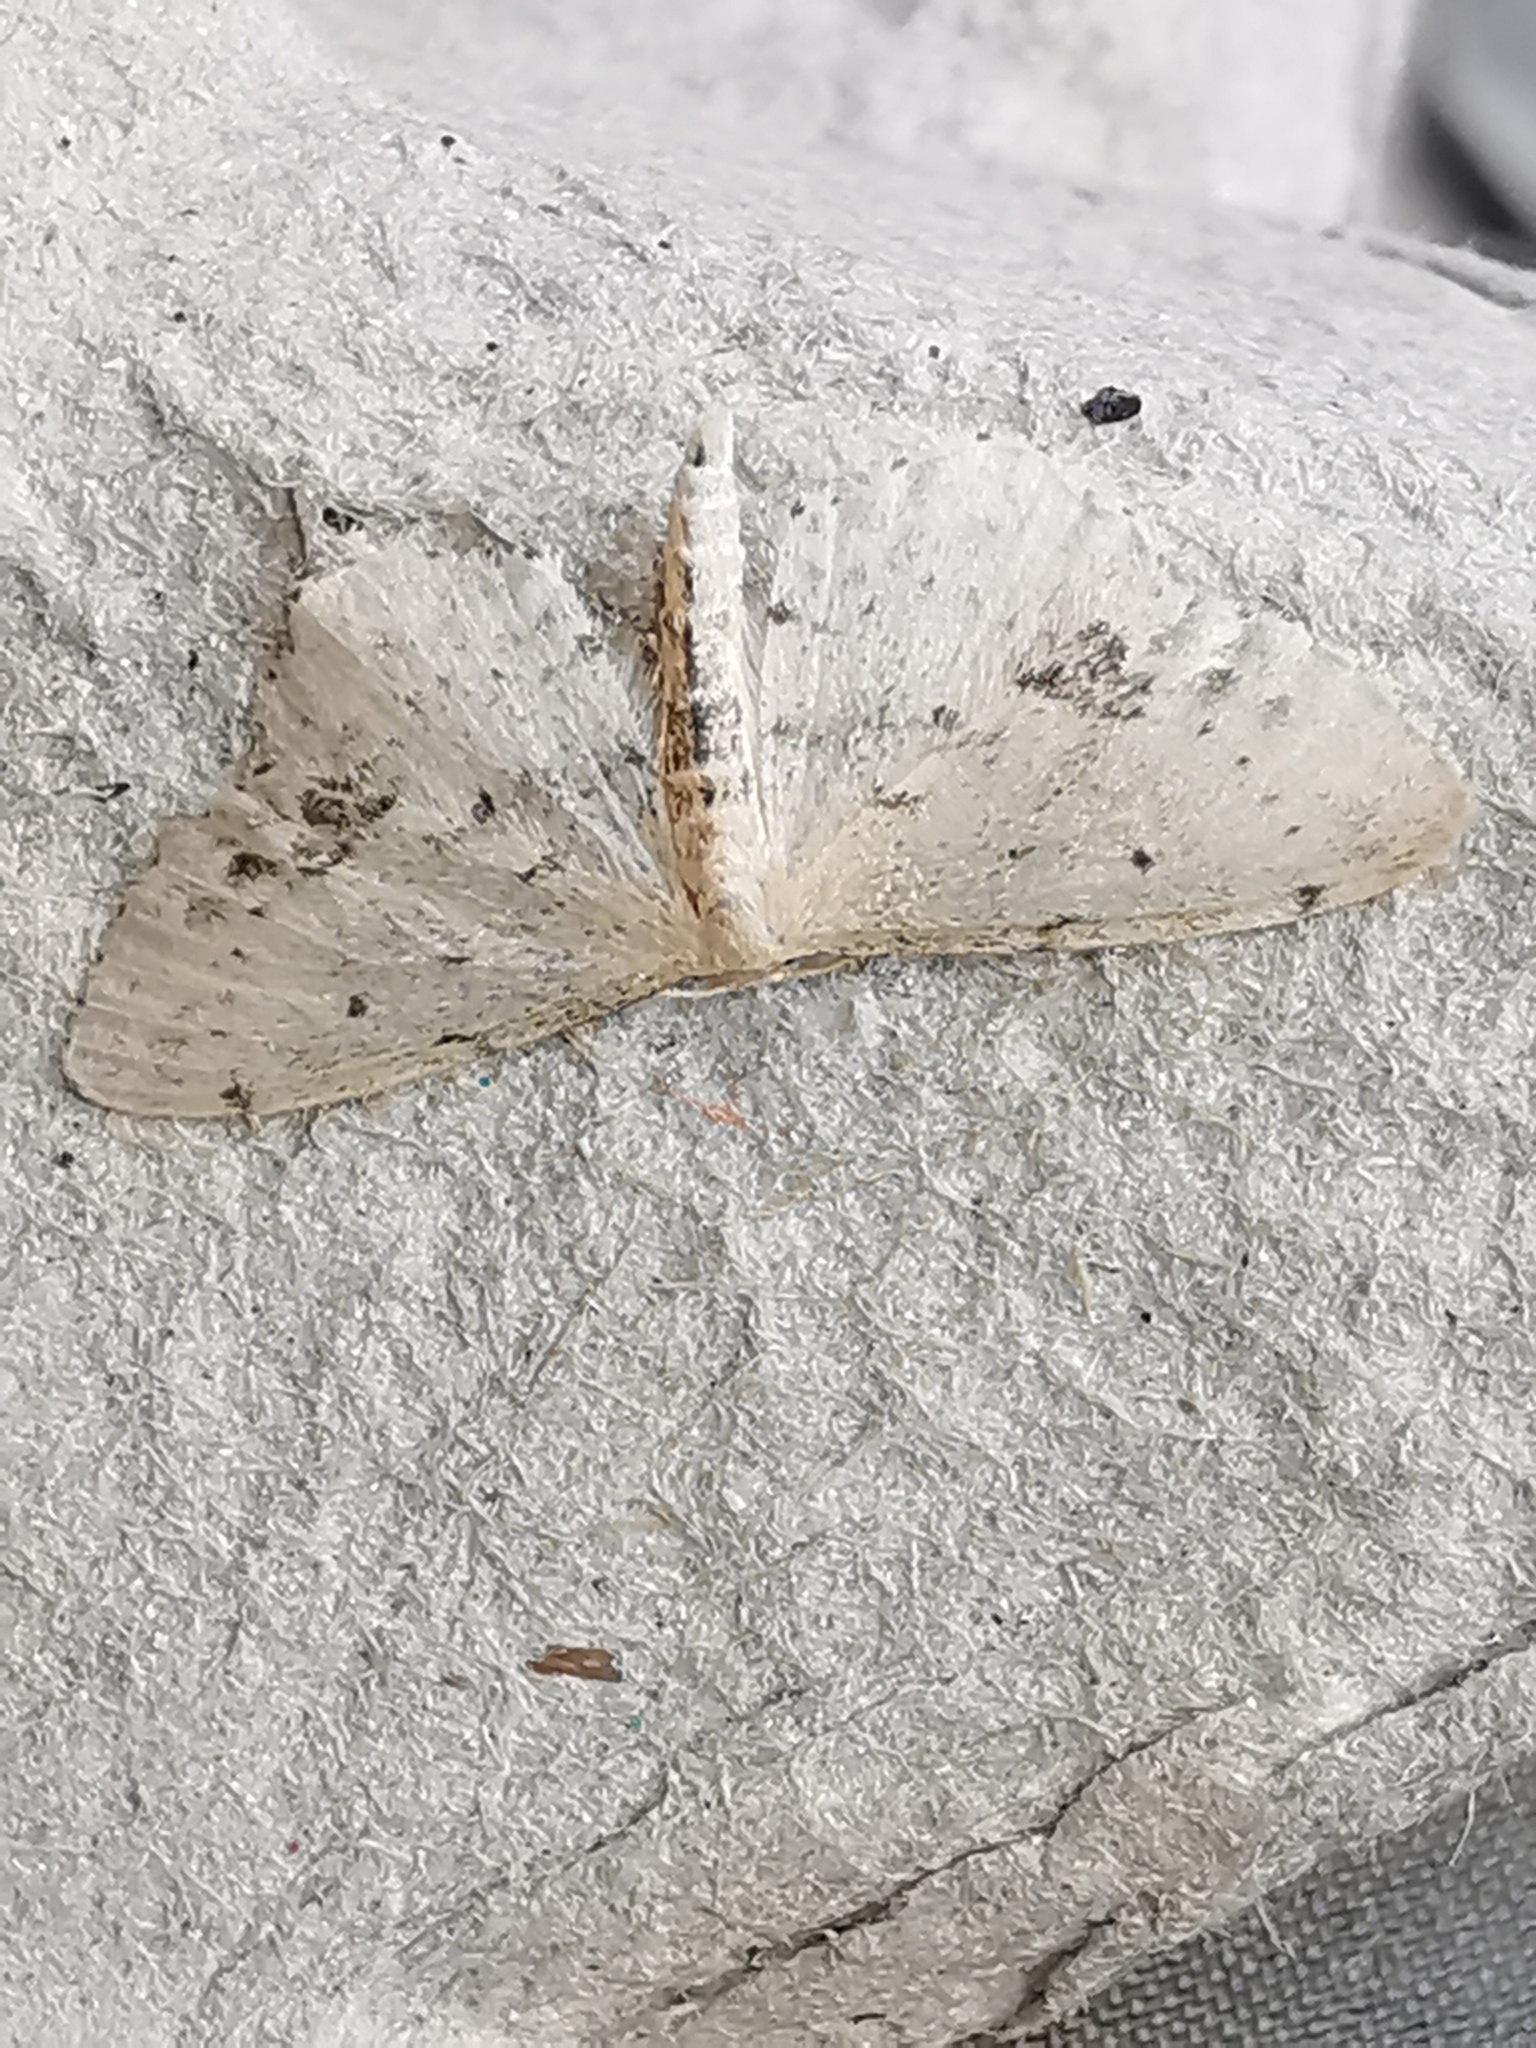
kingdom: Animalia
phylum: Arthropoda
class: Insecta
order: Lepidoptera
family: Geometridae
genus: Idaea
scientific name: Idaea dimidiata
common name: Single-dotted wave
